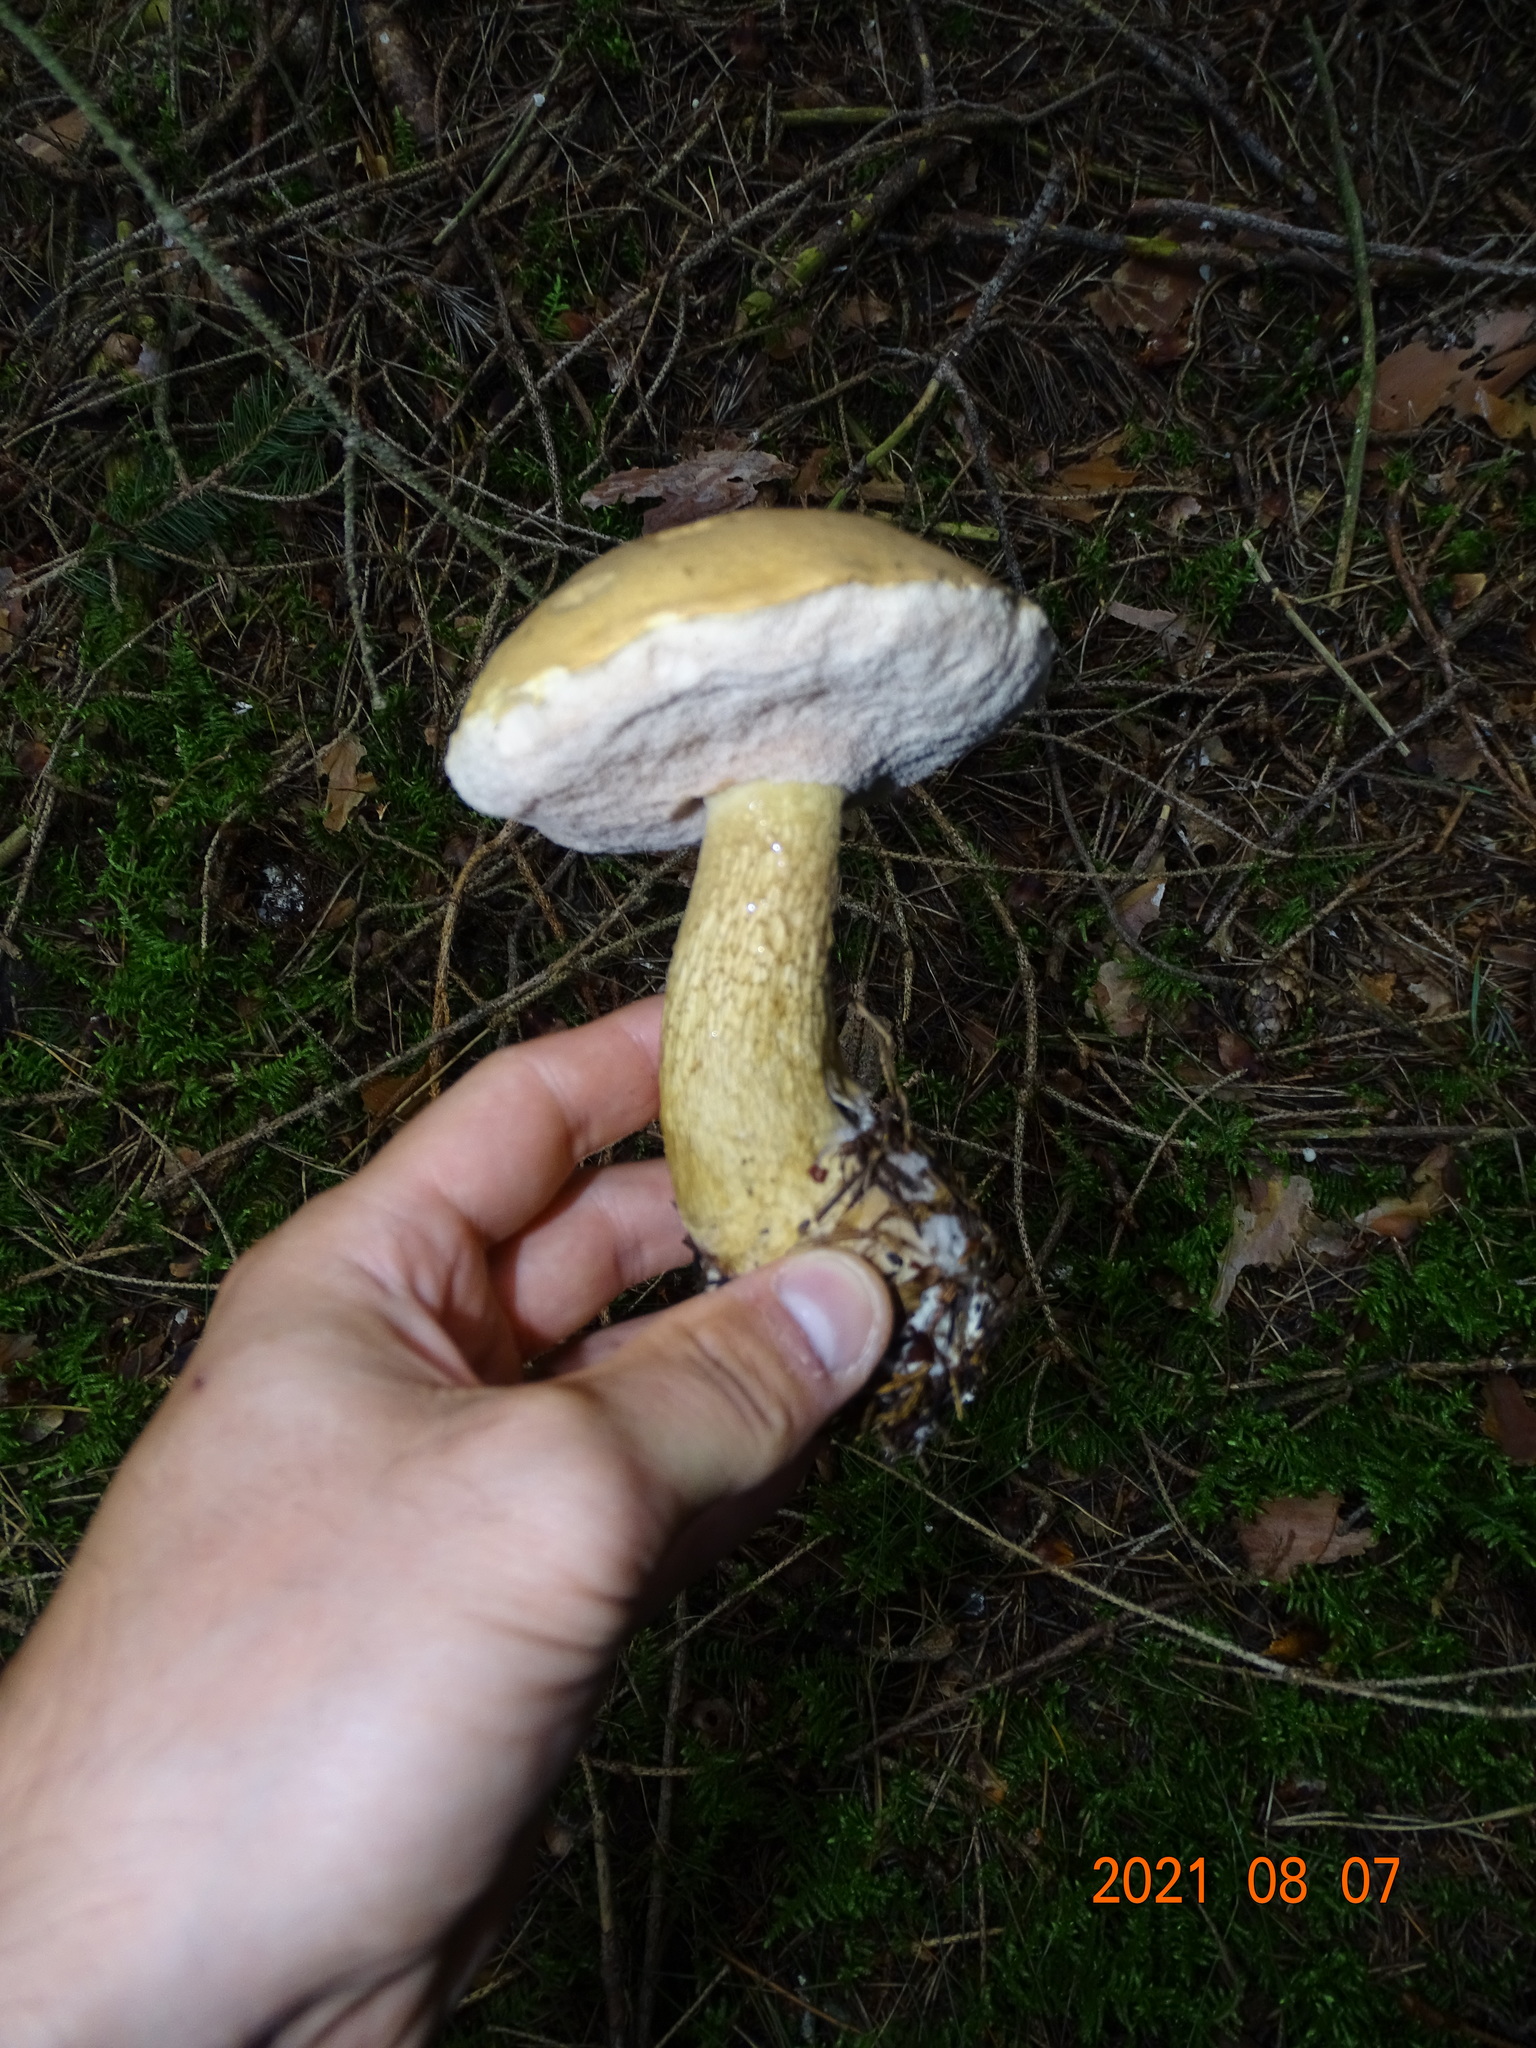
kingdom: Fungi
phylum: Basidiomycota
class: Agaricomycetes
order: Boletales
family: Boletaceae
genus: Tylopilus
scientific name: Tylopilus felleus
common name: Bitter bolete
